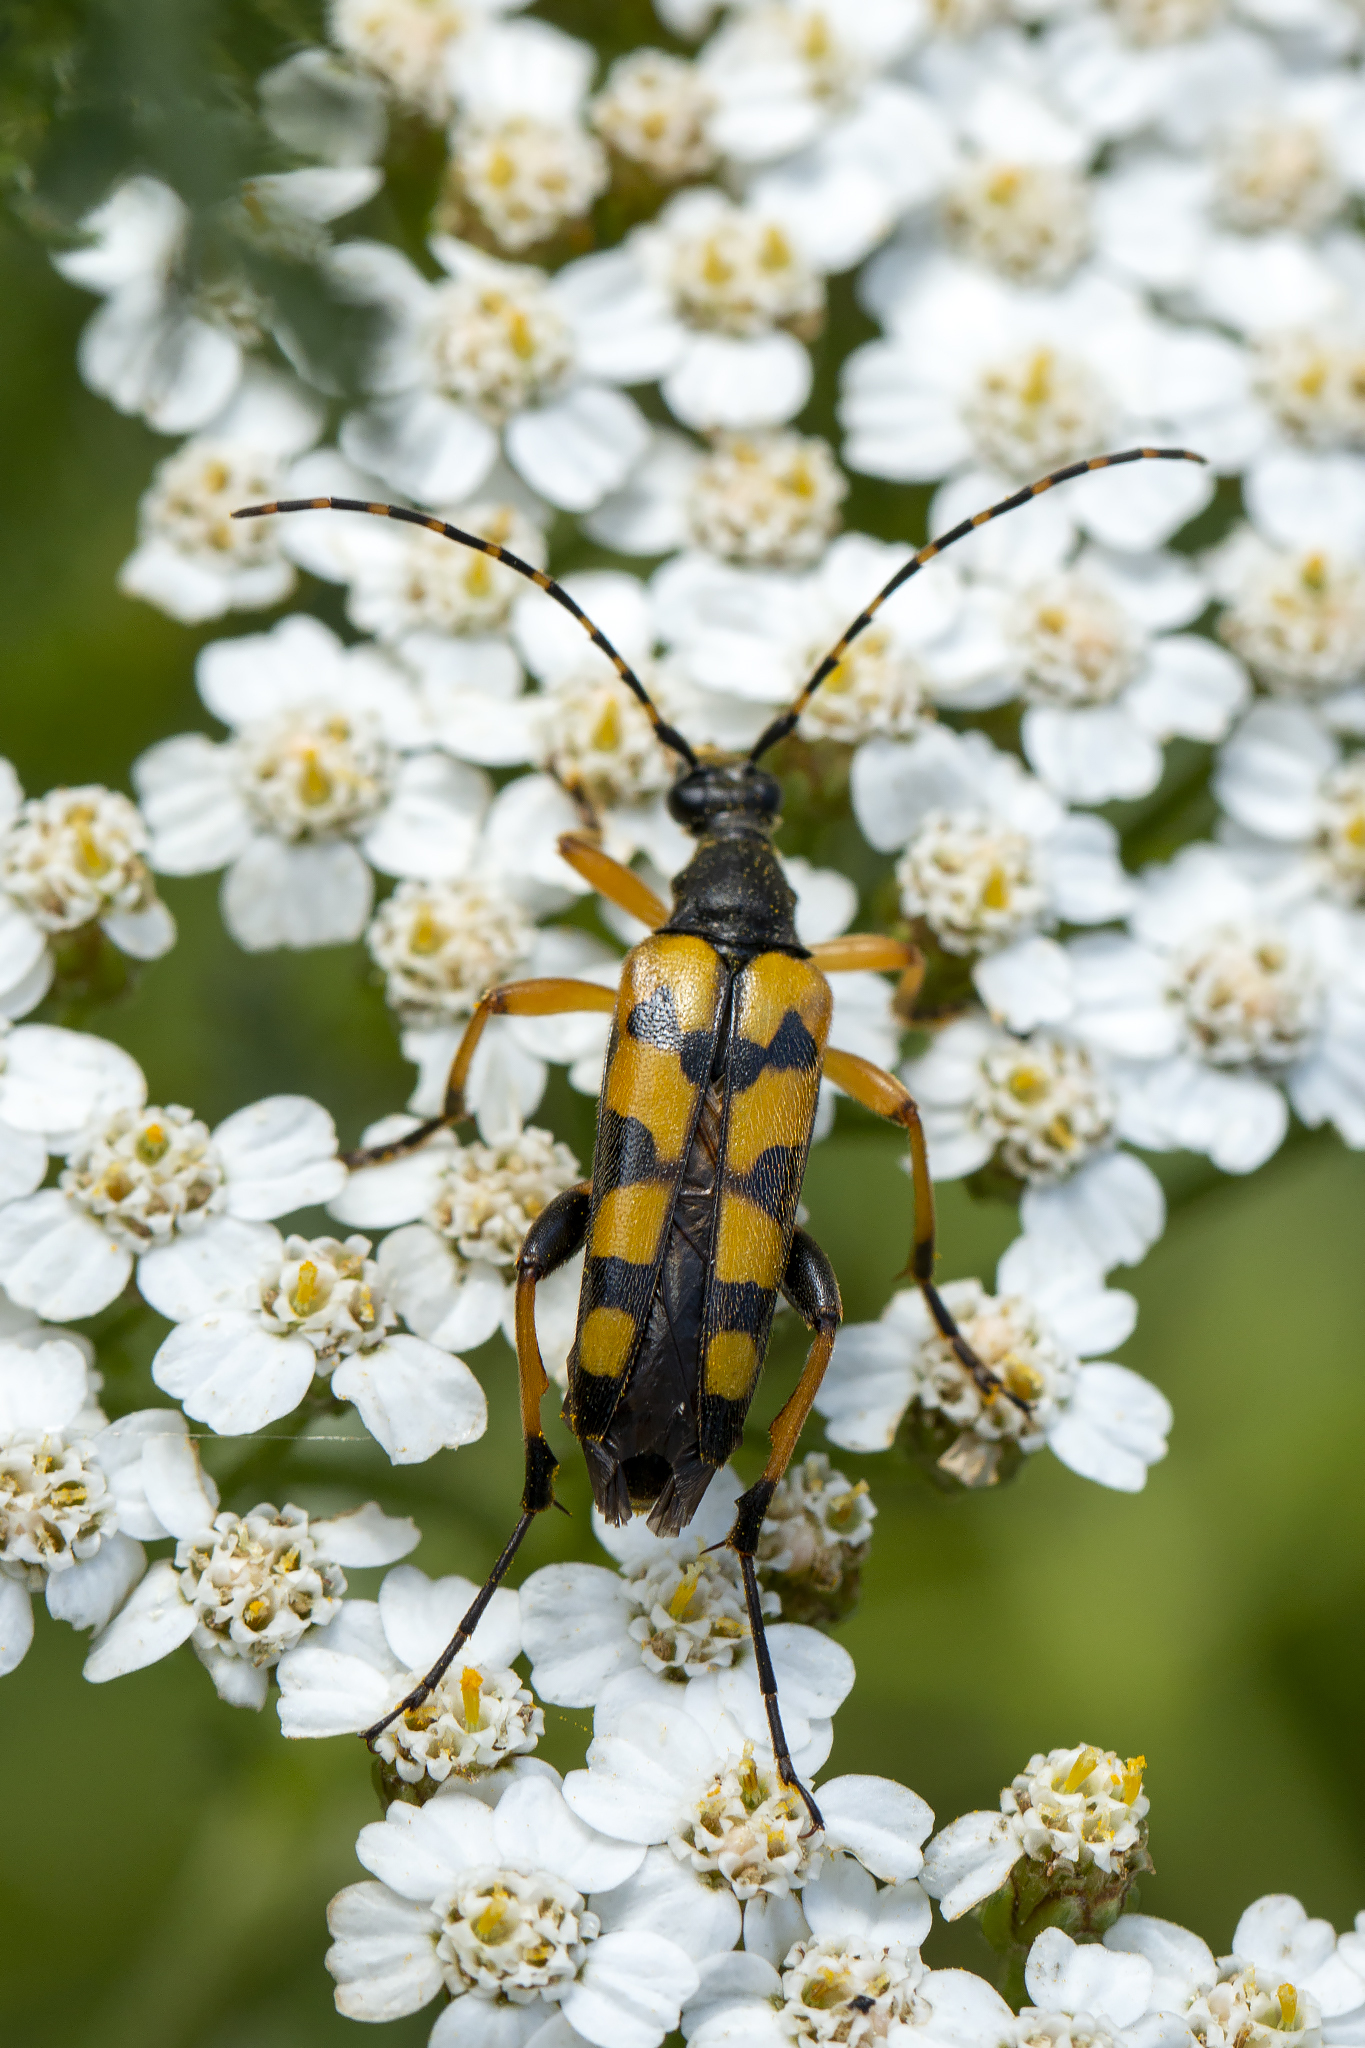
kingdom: Animalia
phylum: Arthropoda
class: Insecta
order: Coleoptera
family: Cerambycidae
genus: Rutpela
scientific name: Rutpela maculata
